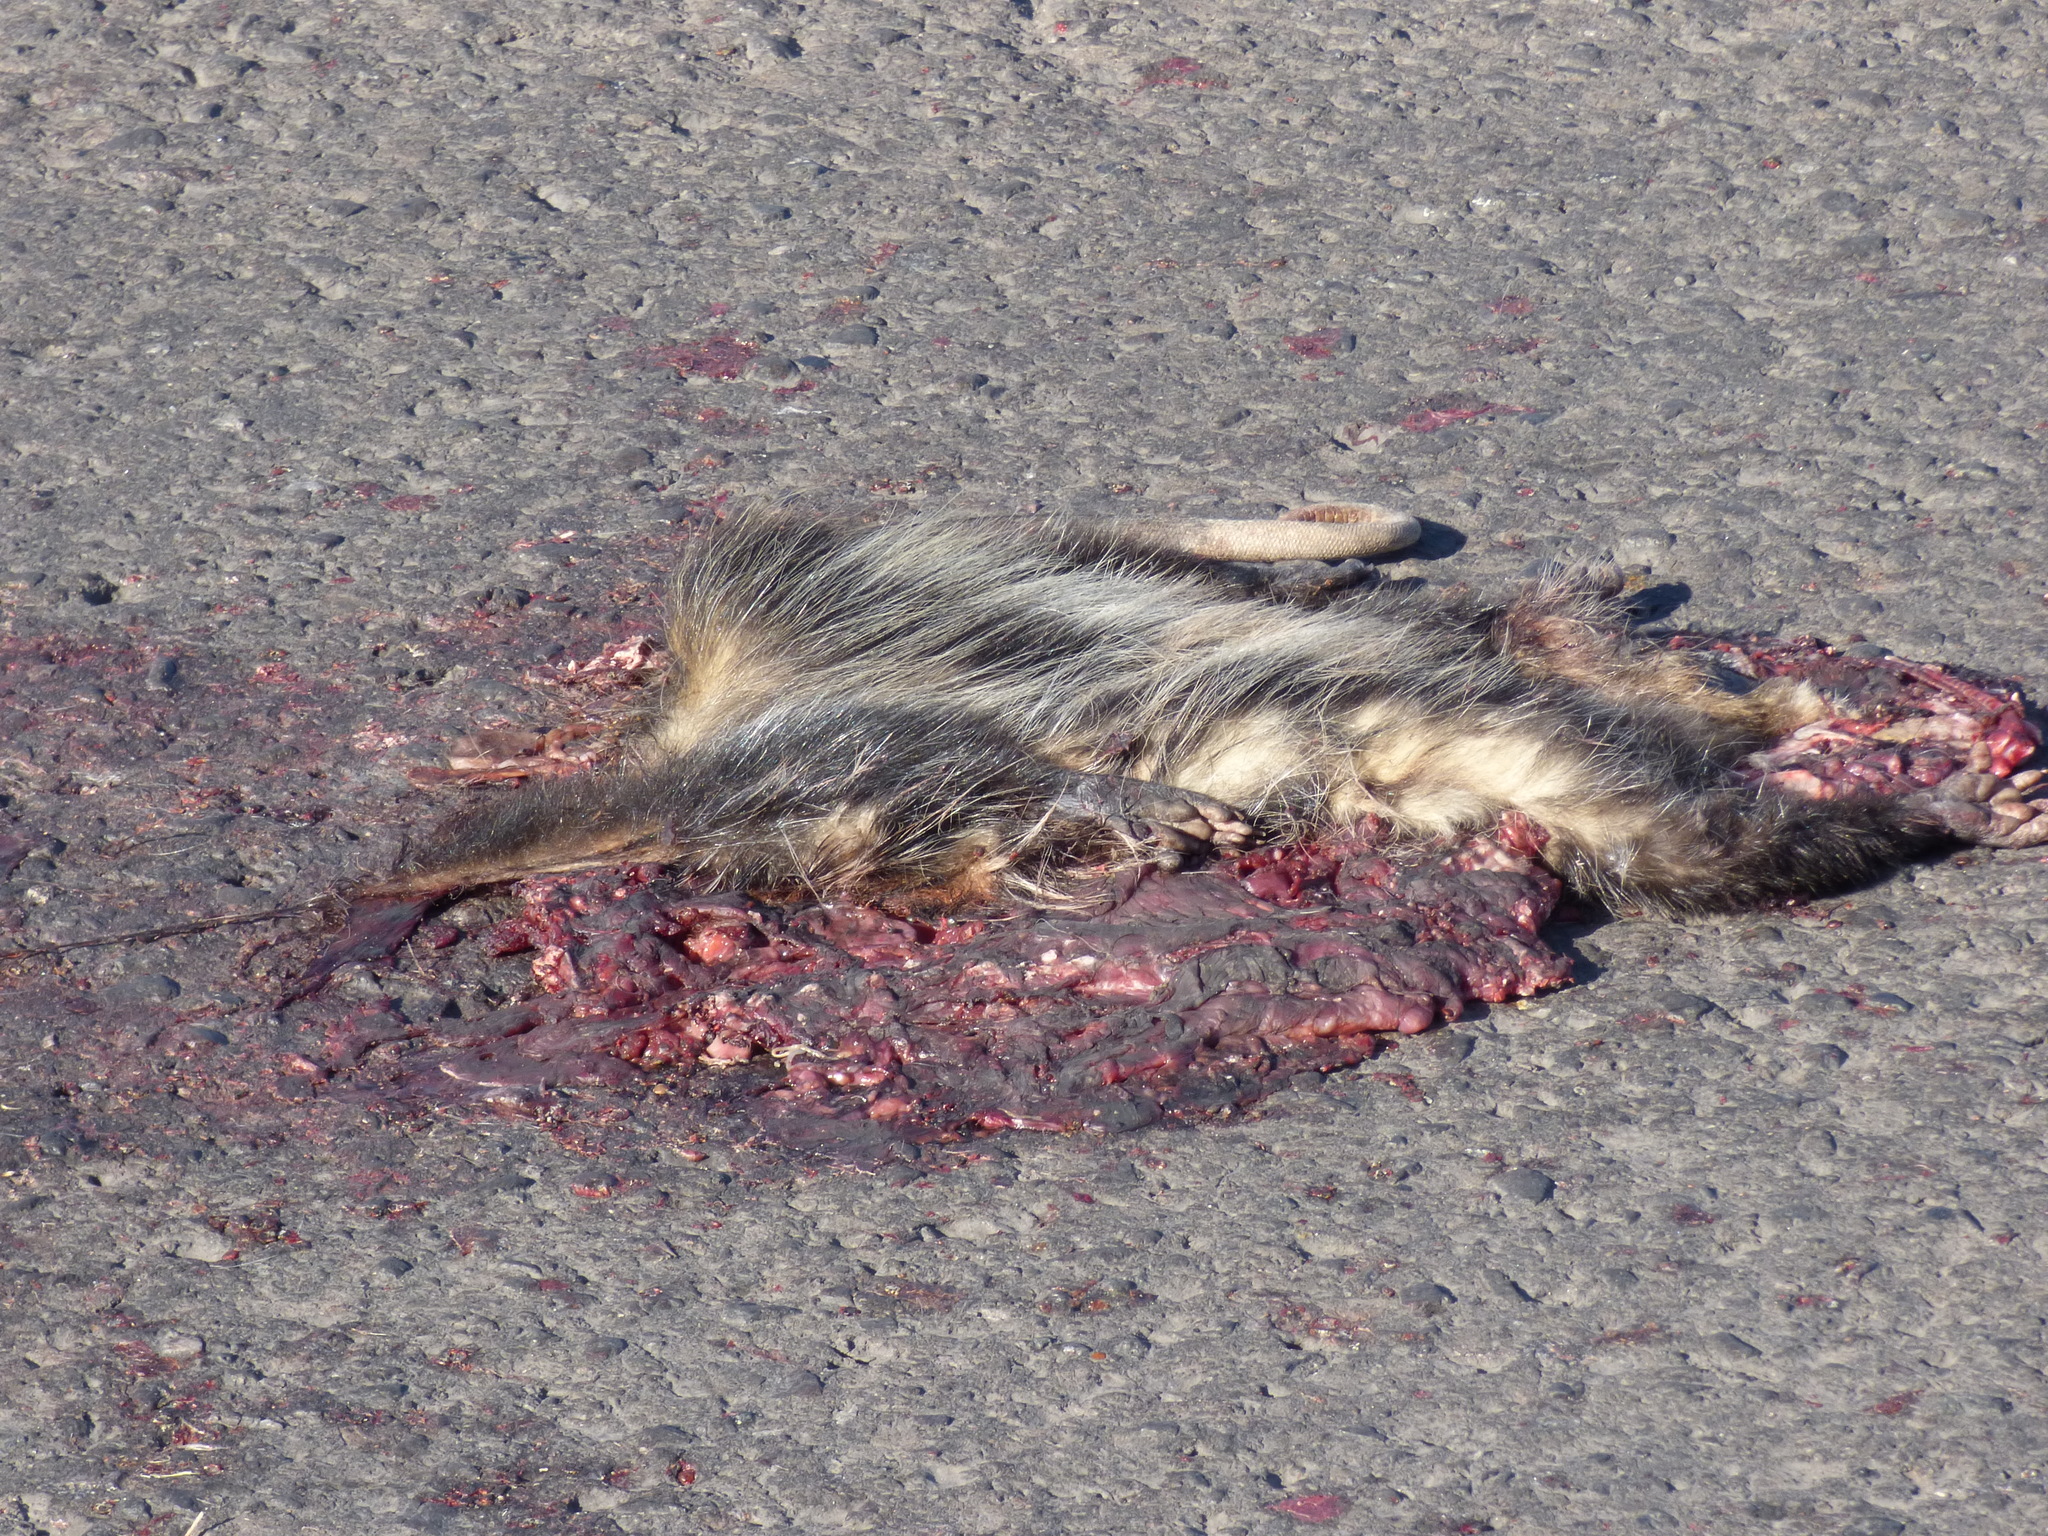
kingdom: Animalia
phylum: Chordata
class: Mammalia
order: Didelphimorphia
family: Didelphidae
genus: Didelphis
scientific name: Didelphis albiventris
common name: White-eared opossum
